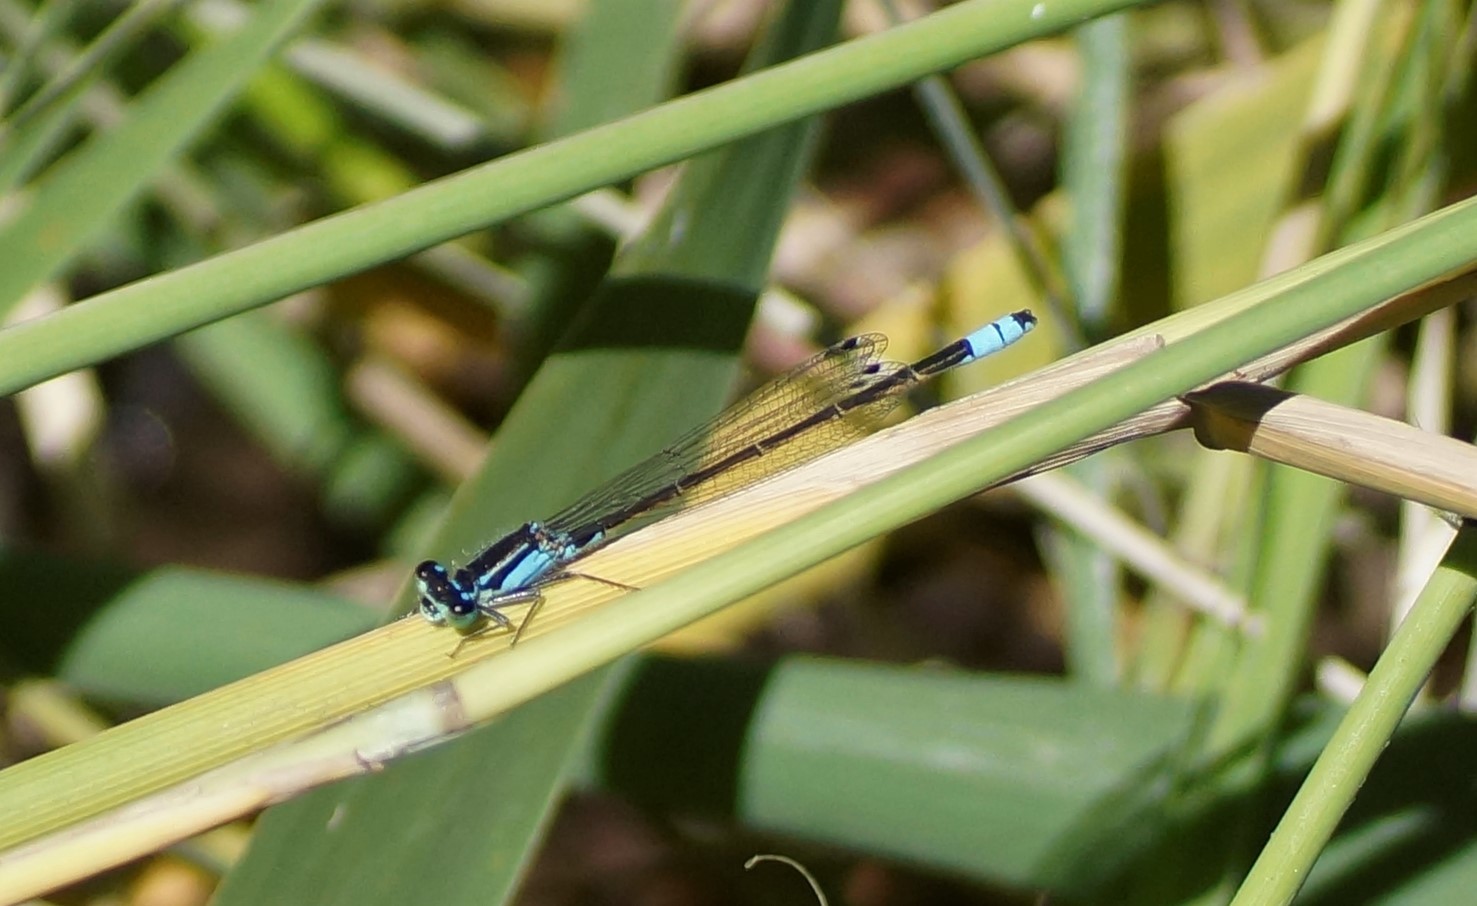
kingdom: Animalia
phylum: Arthropoda
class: Insecta
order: Odonata
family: Coenagrionidae
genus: Ischnura
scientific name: Ischnura heterosticta
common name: Common bluetail
